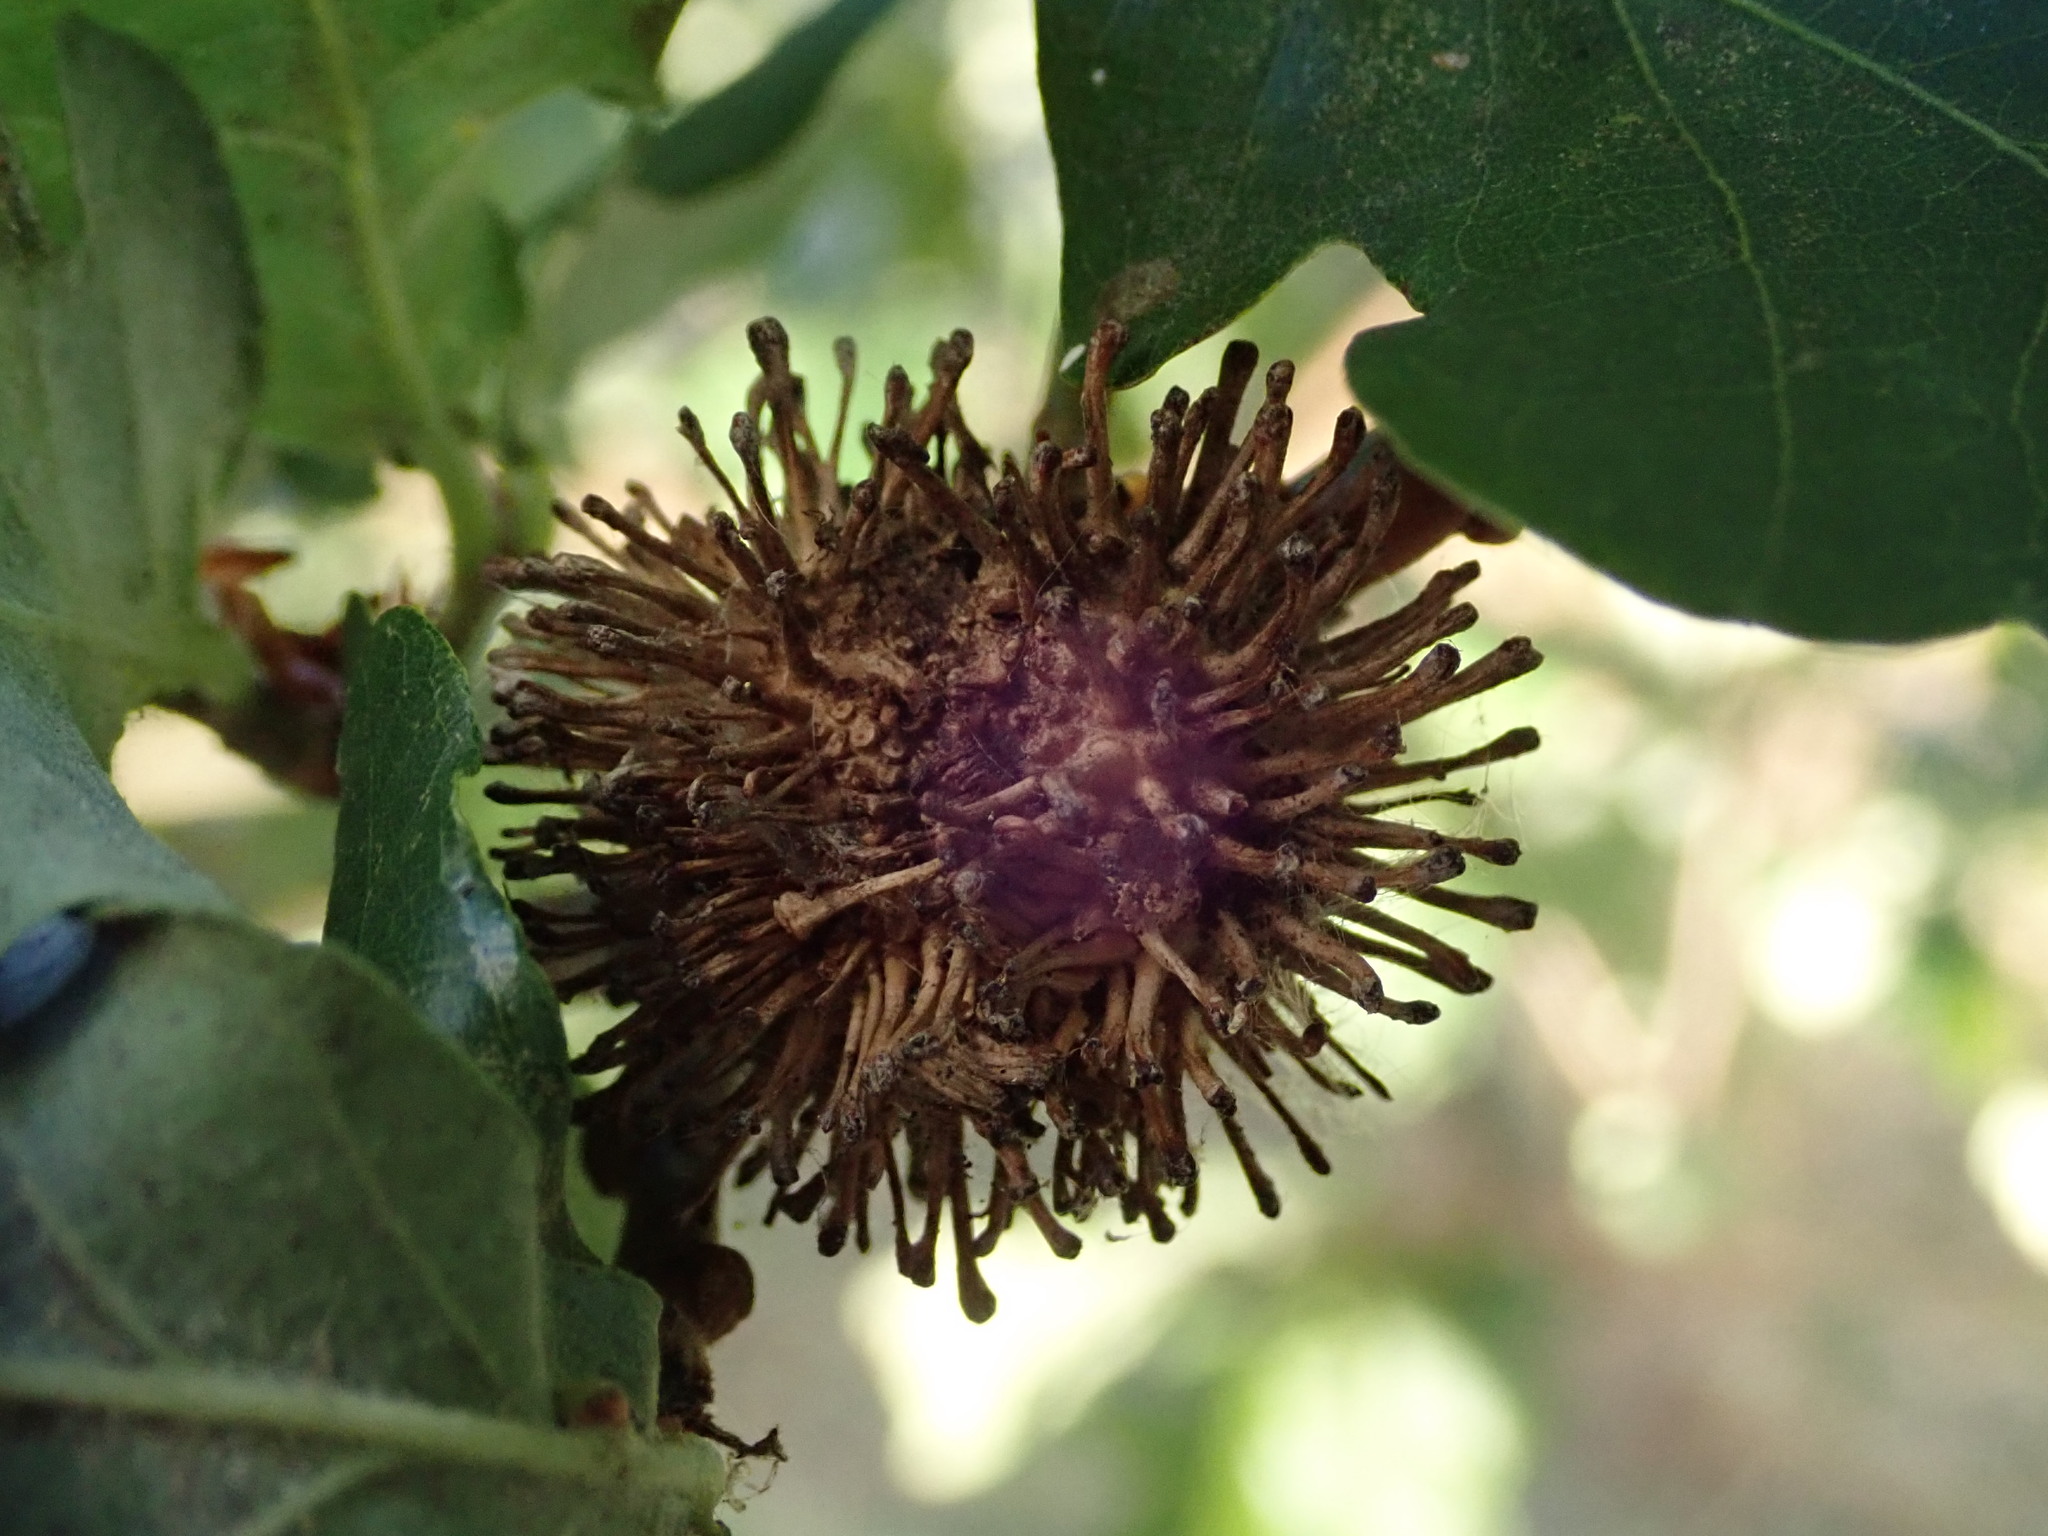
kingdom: Animalia
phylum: Arthropoda
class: Insecta
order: Hymenoptera
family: Cynipidae
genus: Andricus
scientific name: Andricus lucidus
